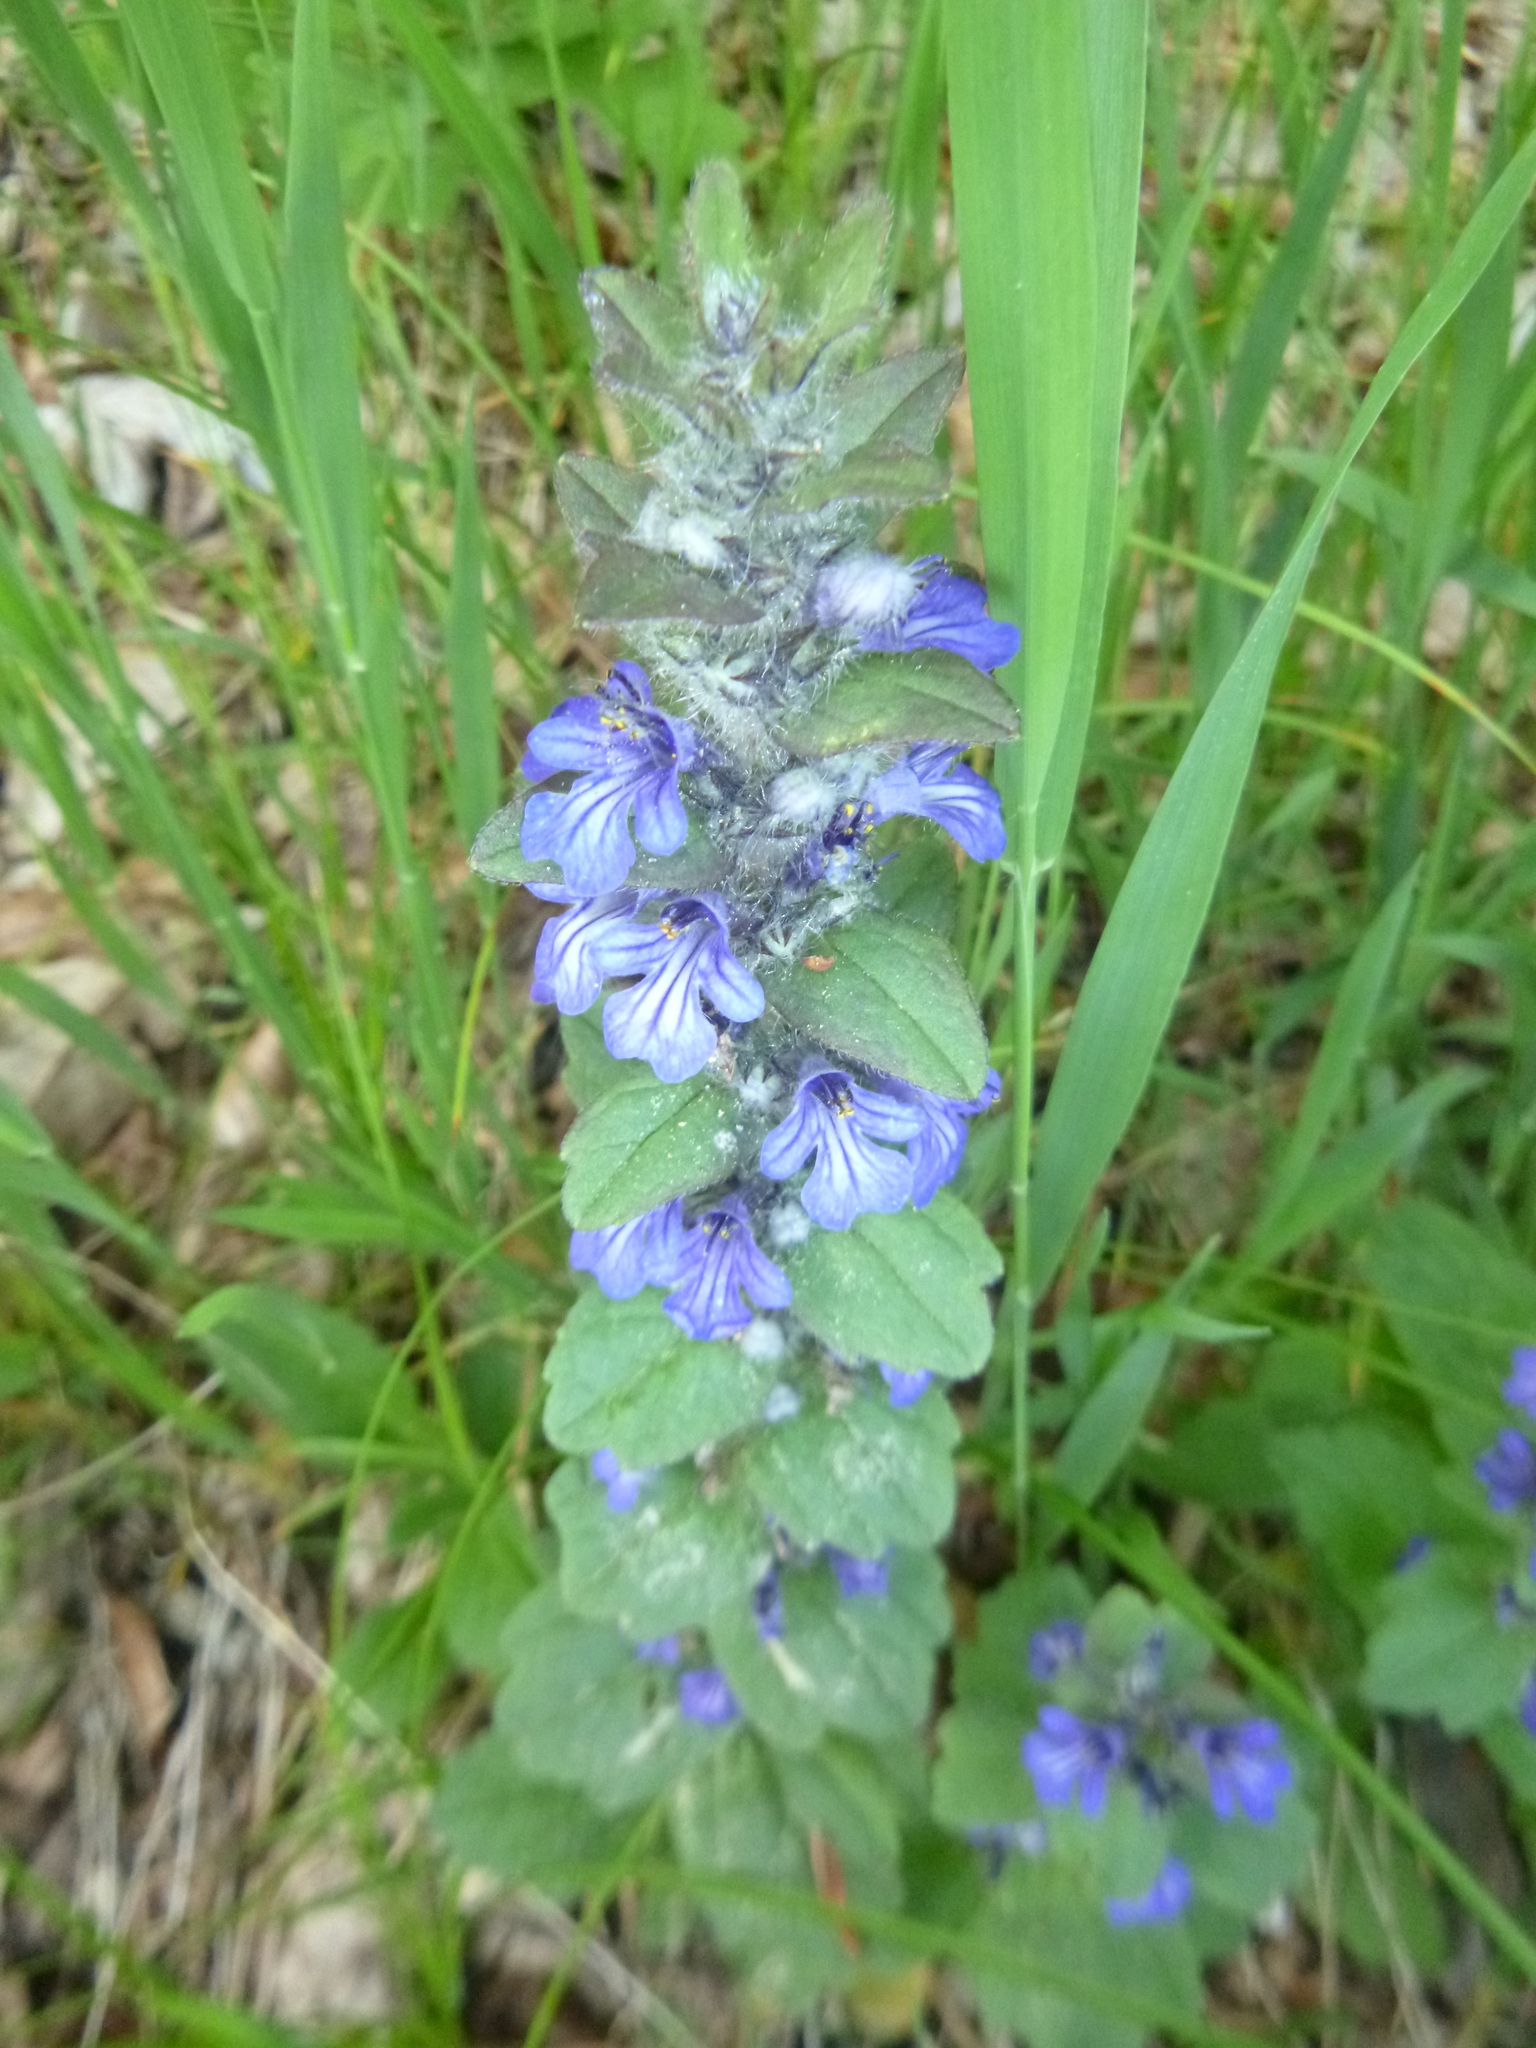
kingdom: Plantae
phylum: Tracheophyta
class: Magnoliopsida
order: Lamiales
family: Lamiaceae
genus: Ajuga
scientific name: Ajuga genevensis
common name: Blue bugle
